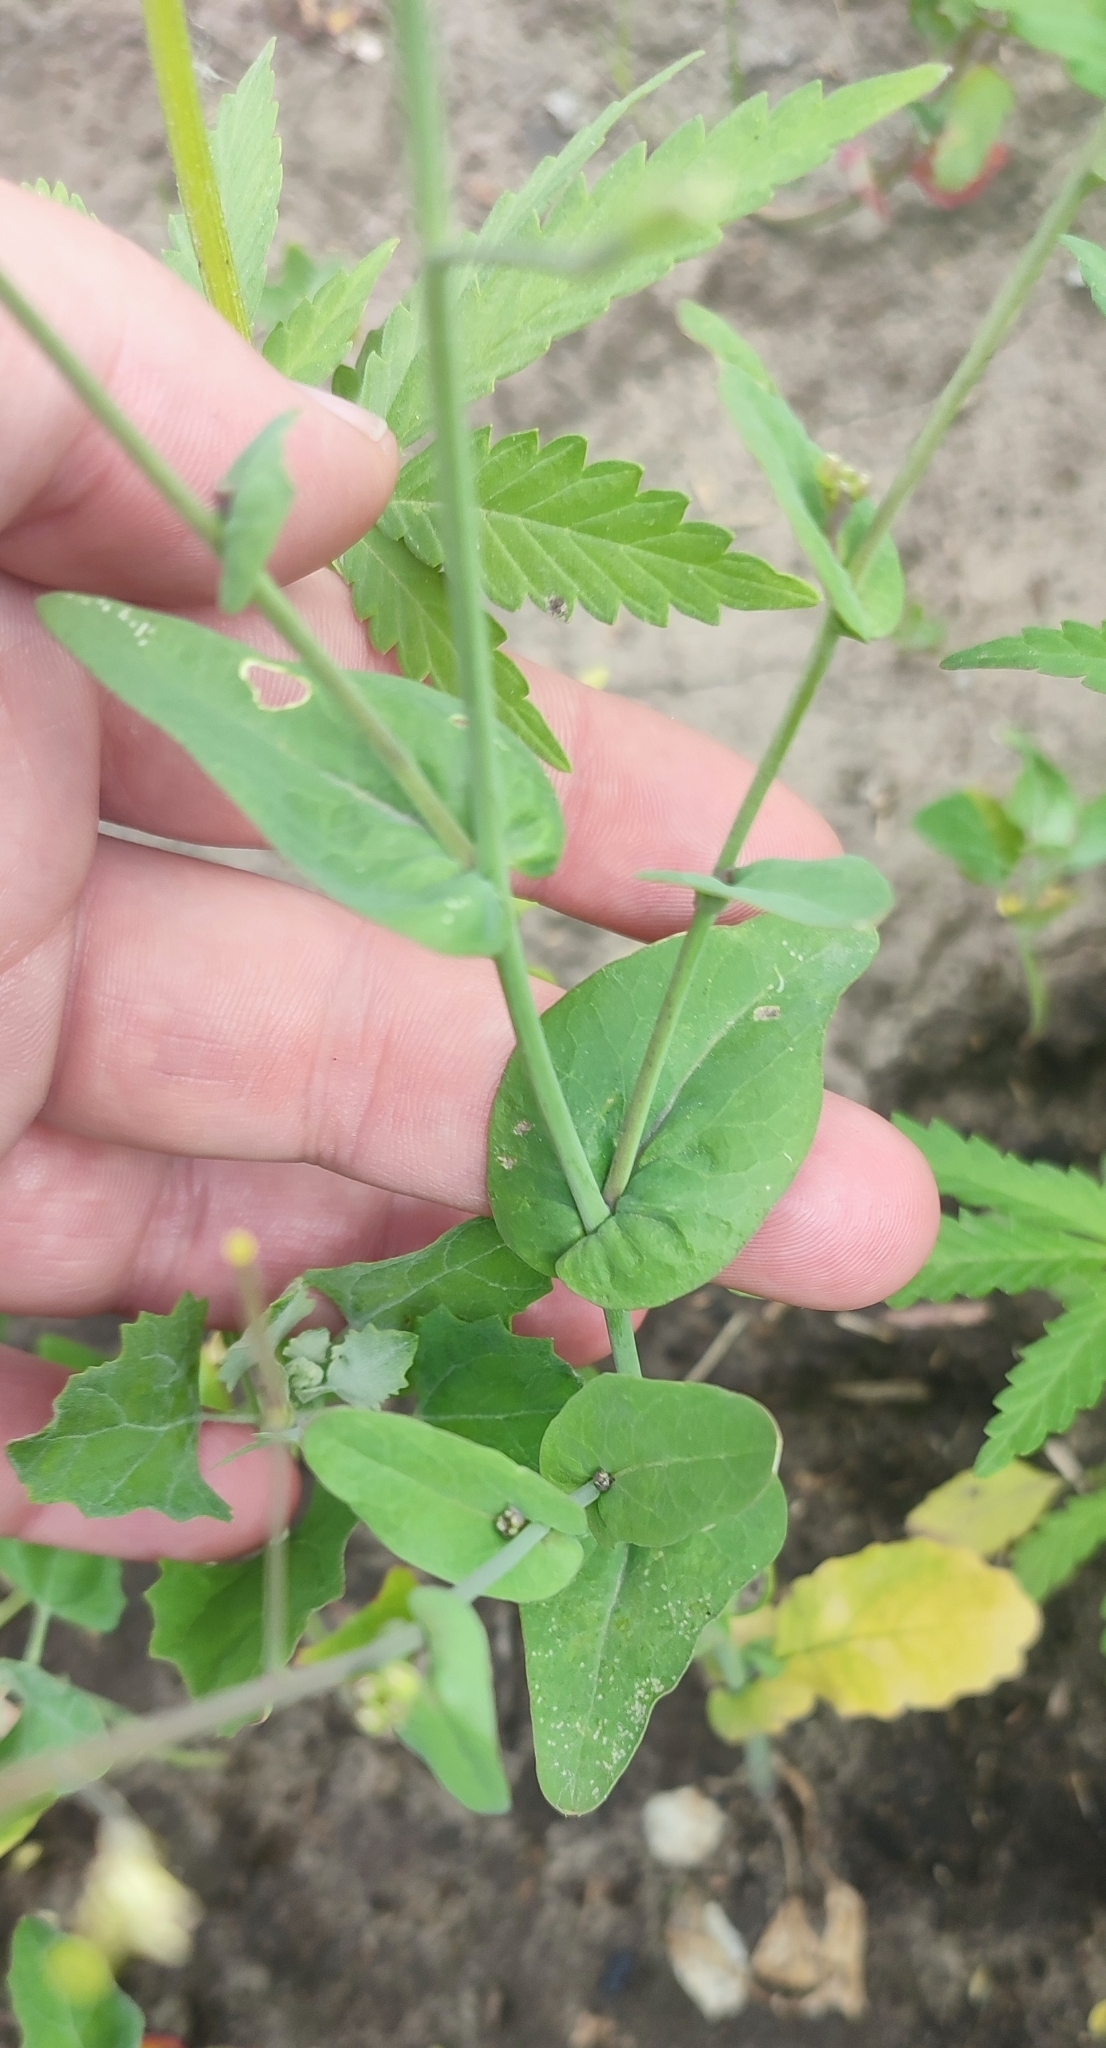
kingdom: Plantae
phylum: Tracheophyta
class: Magnoliopsida
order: Brassicales
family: Brassicaceae
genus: Brassica
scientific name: Brassica rapa
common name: Field mustard
